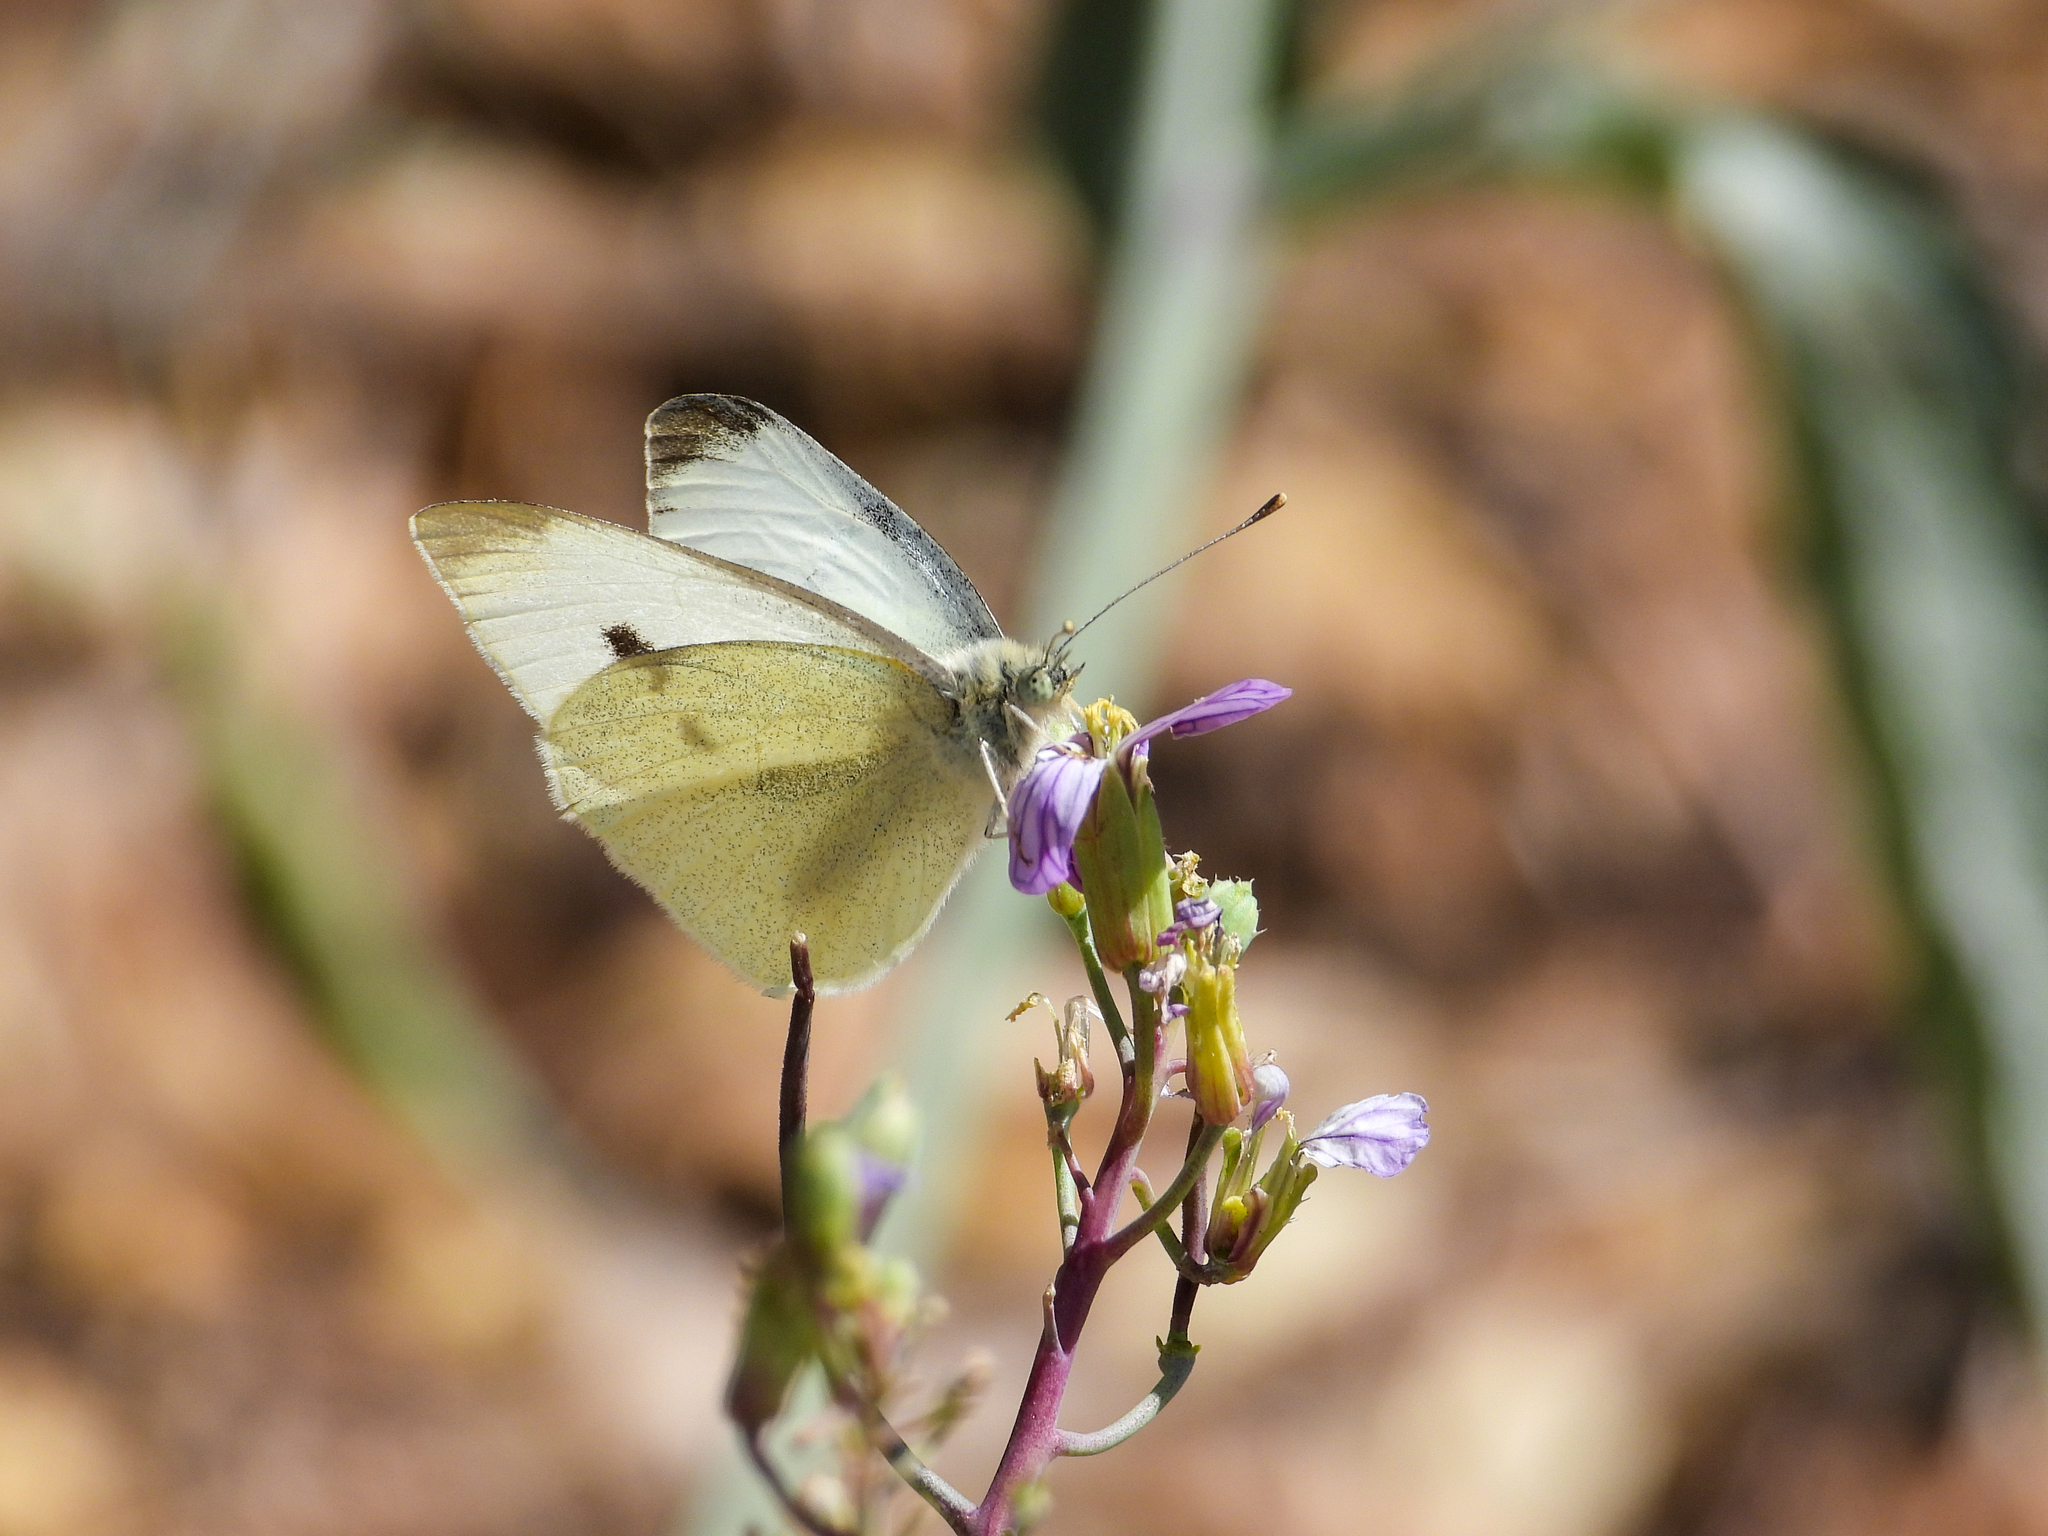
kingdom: Animalia
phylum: Arthropoda
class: Insecta
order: Lepidoptera
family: Pieridae
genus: Pieris
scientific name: Pieris rapae
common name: Small white
